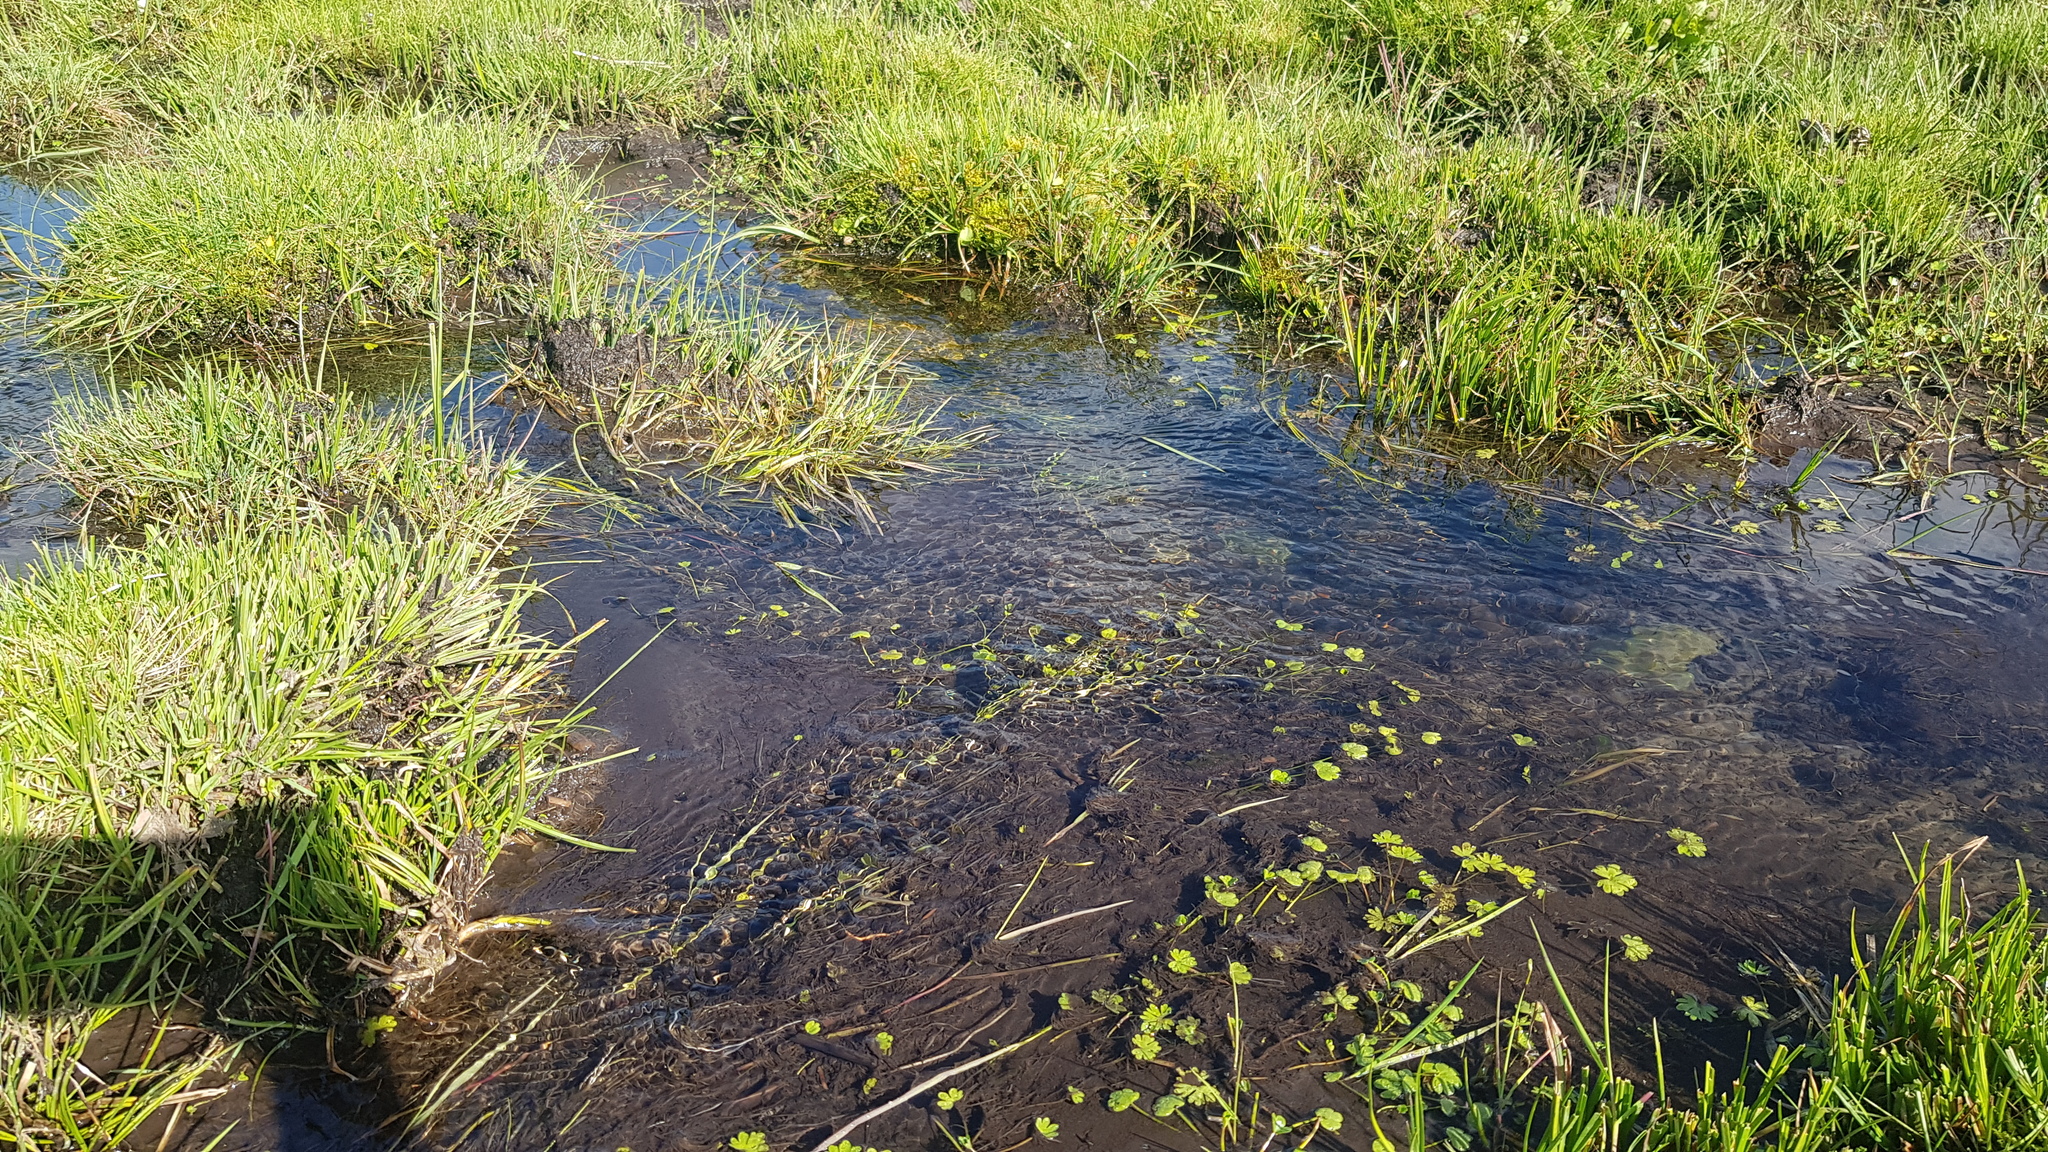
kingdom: Plantae
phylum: Tracheophyta
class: Magnoliopsida
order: Ranunculales
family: Ranunculaceae
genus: Ranunculus
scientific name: Ranunculus sceleratus
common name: Celery-leaved buttercup
